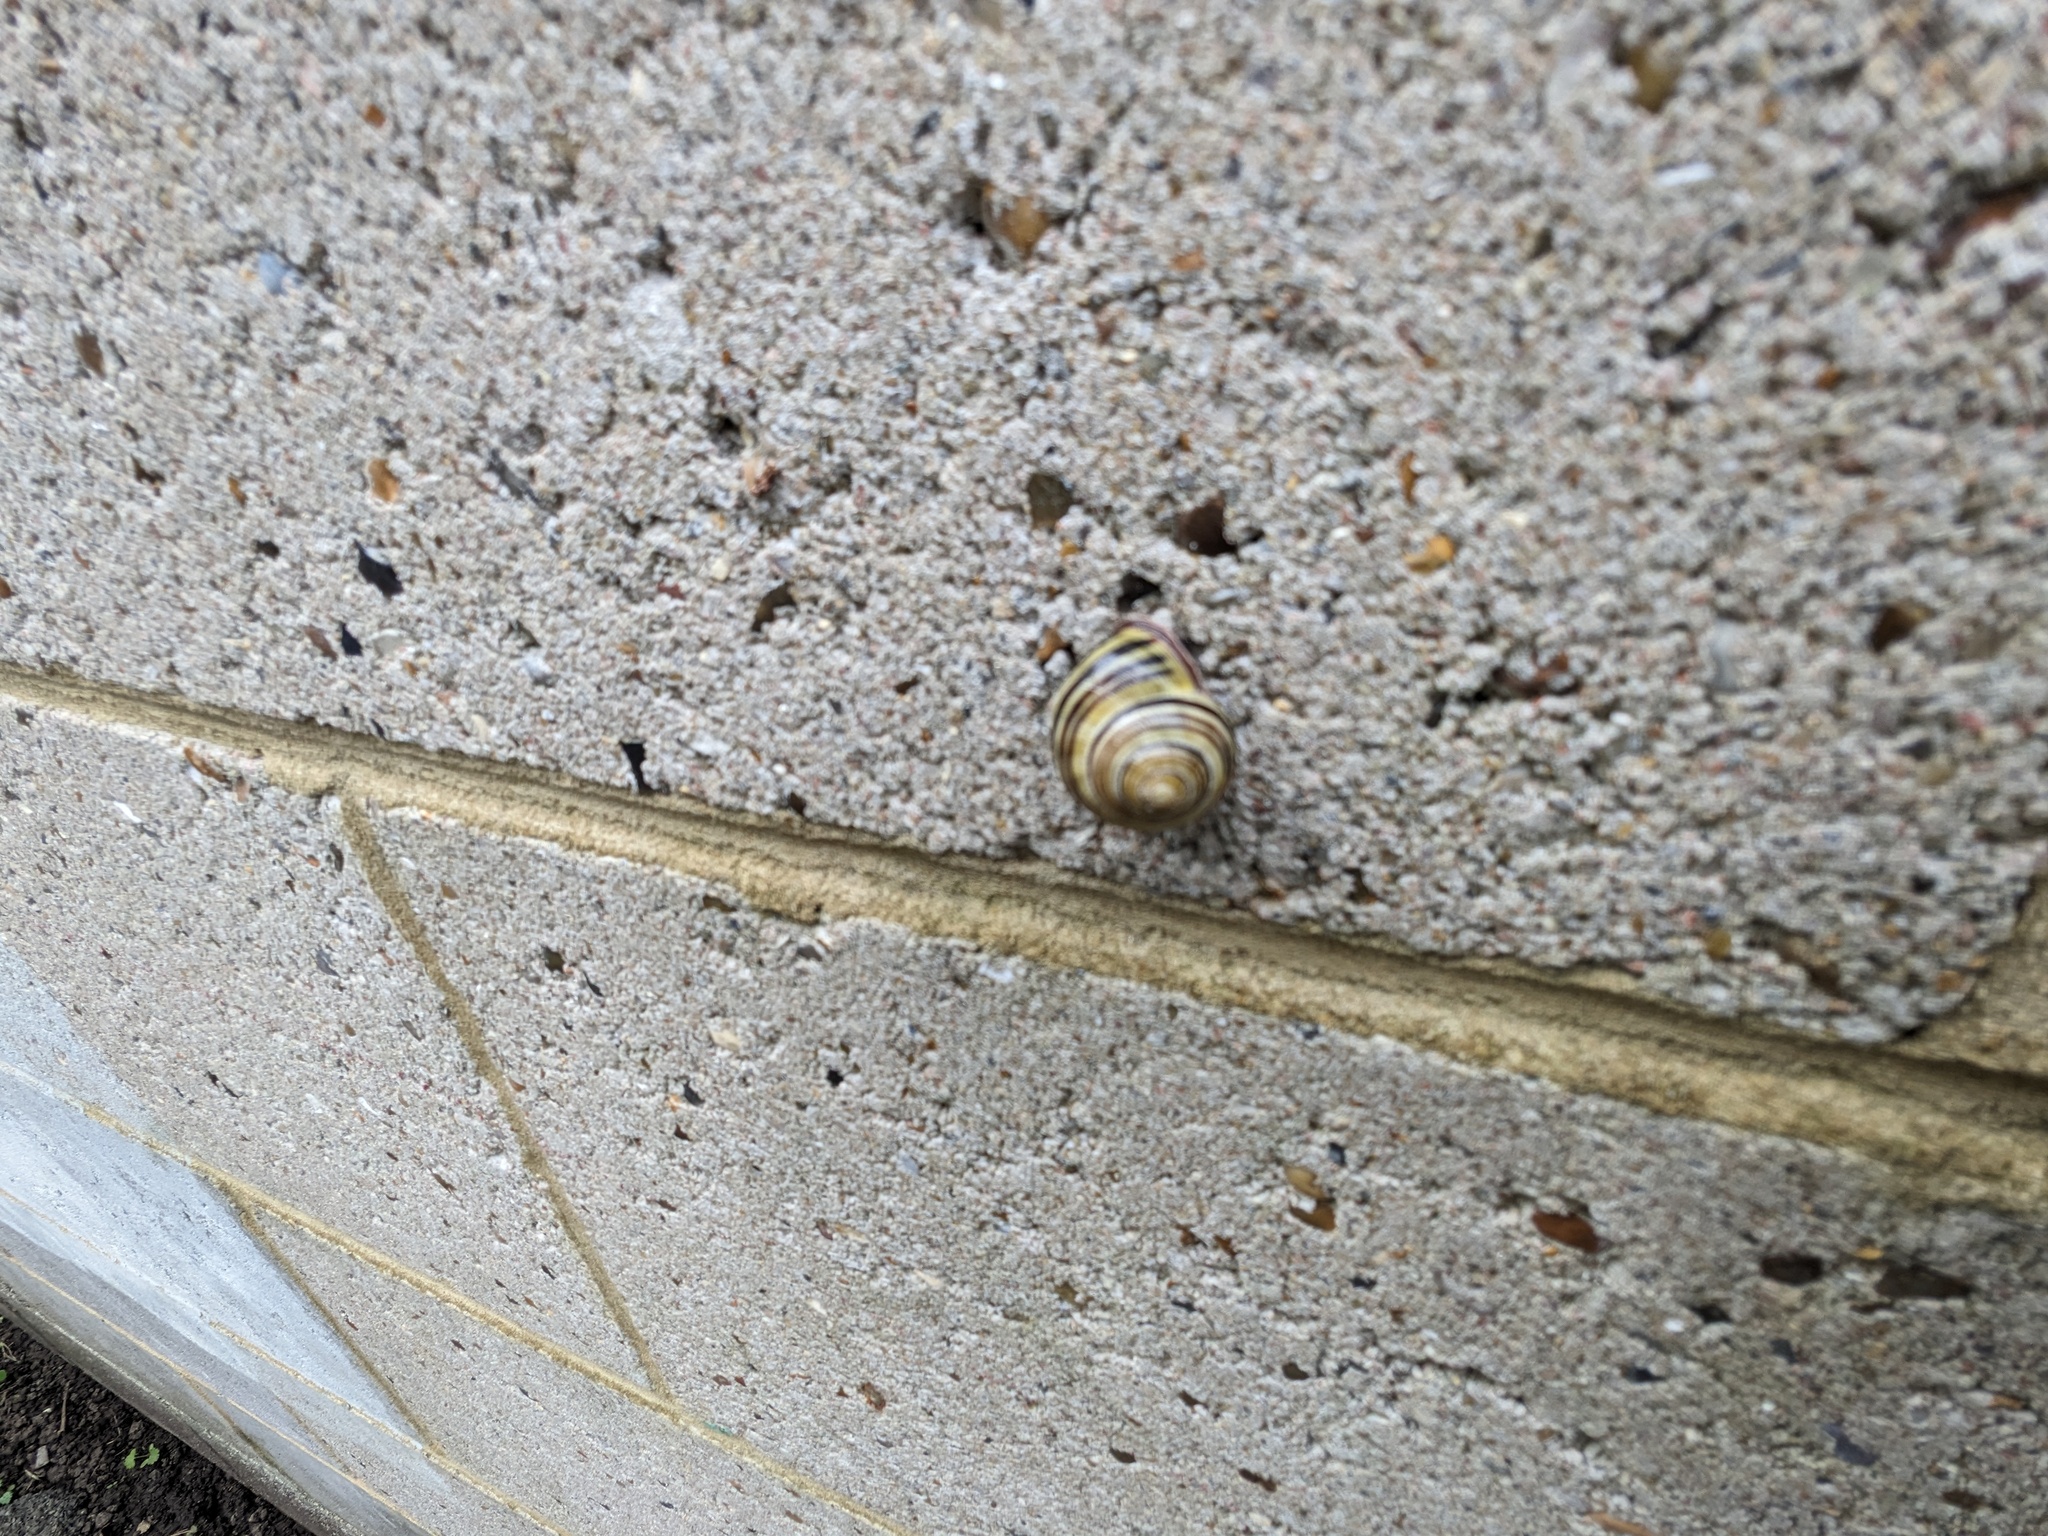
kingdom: Animalia
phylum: Mollusca
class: Gastropoda
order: Stylommatophora
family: Helicidae
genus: Cepaea
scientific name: Cepaea nemoralis
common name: Grovesnail
